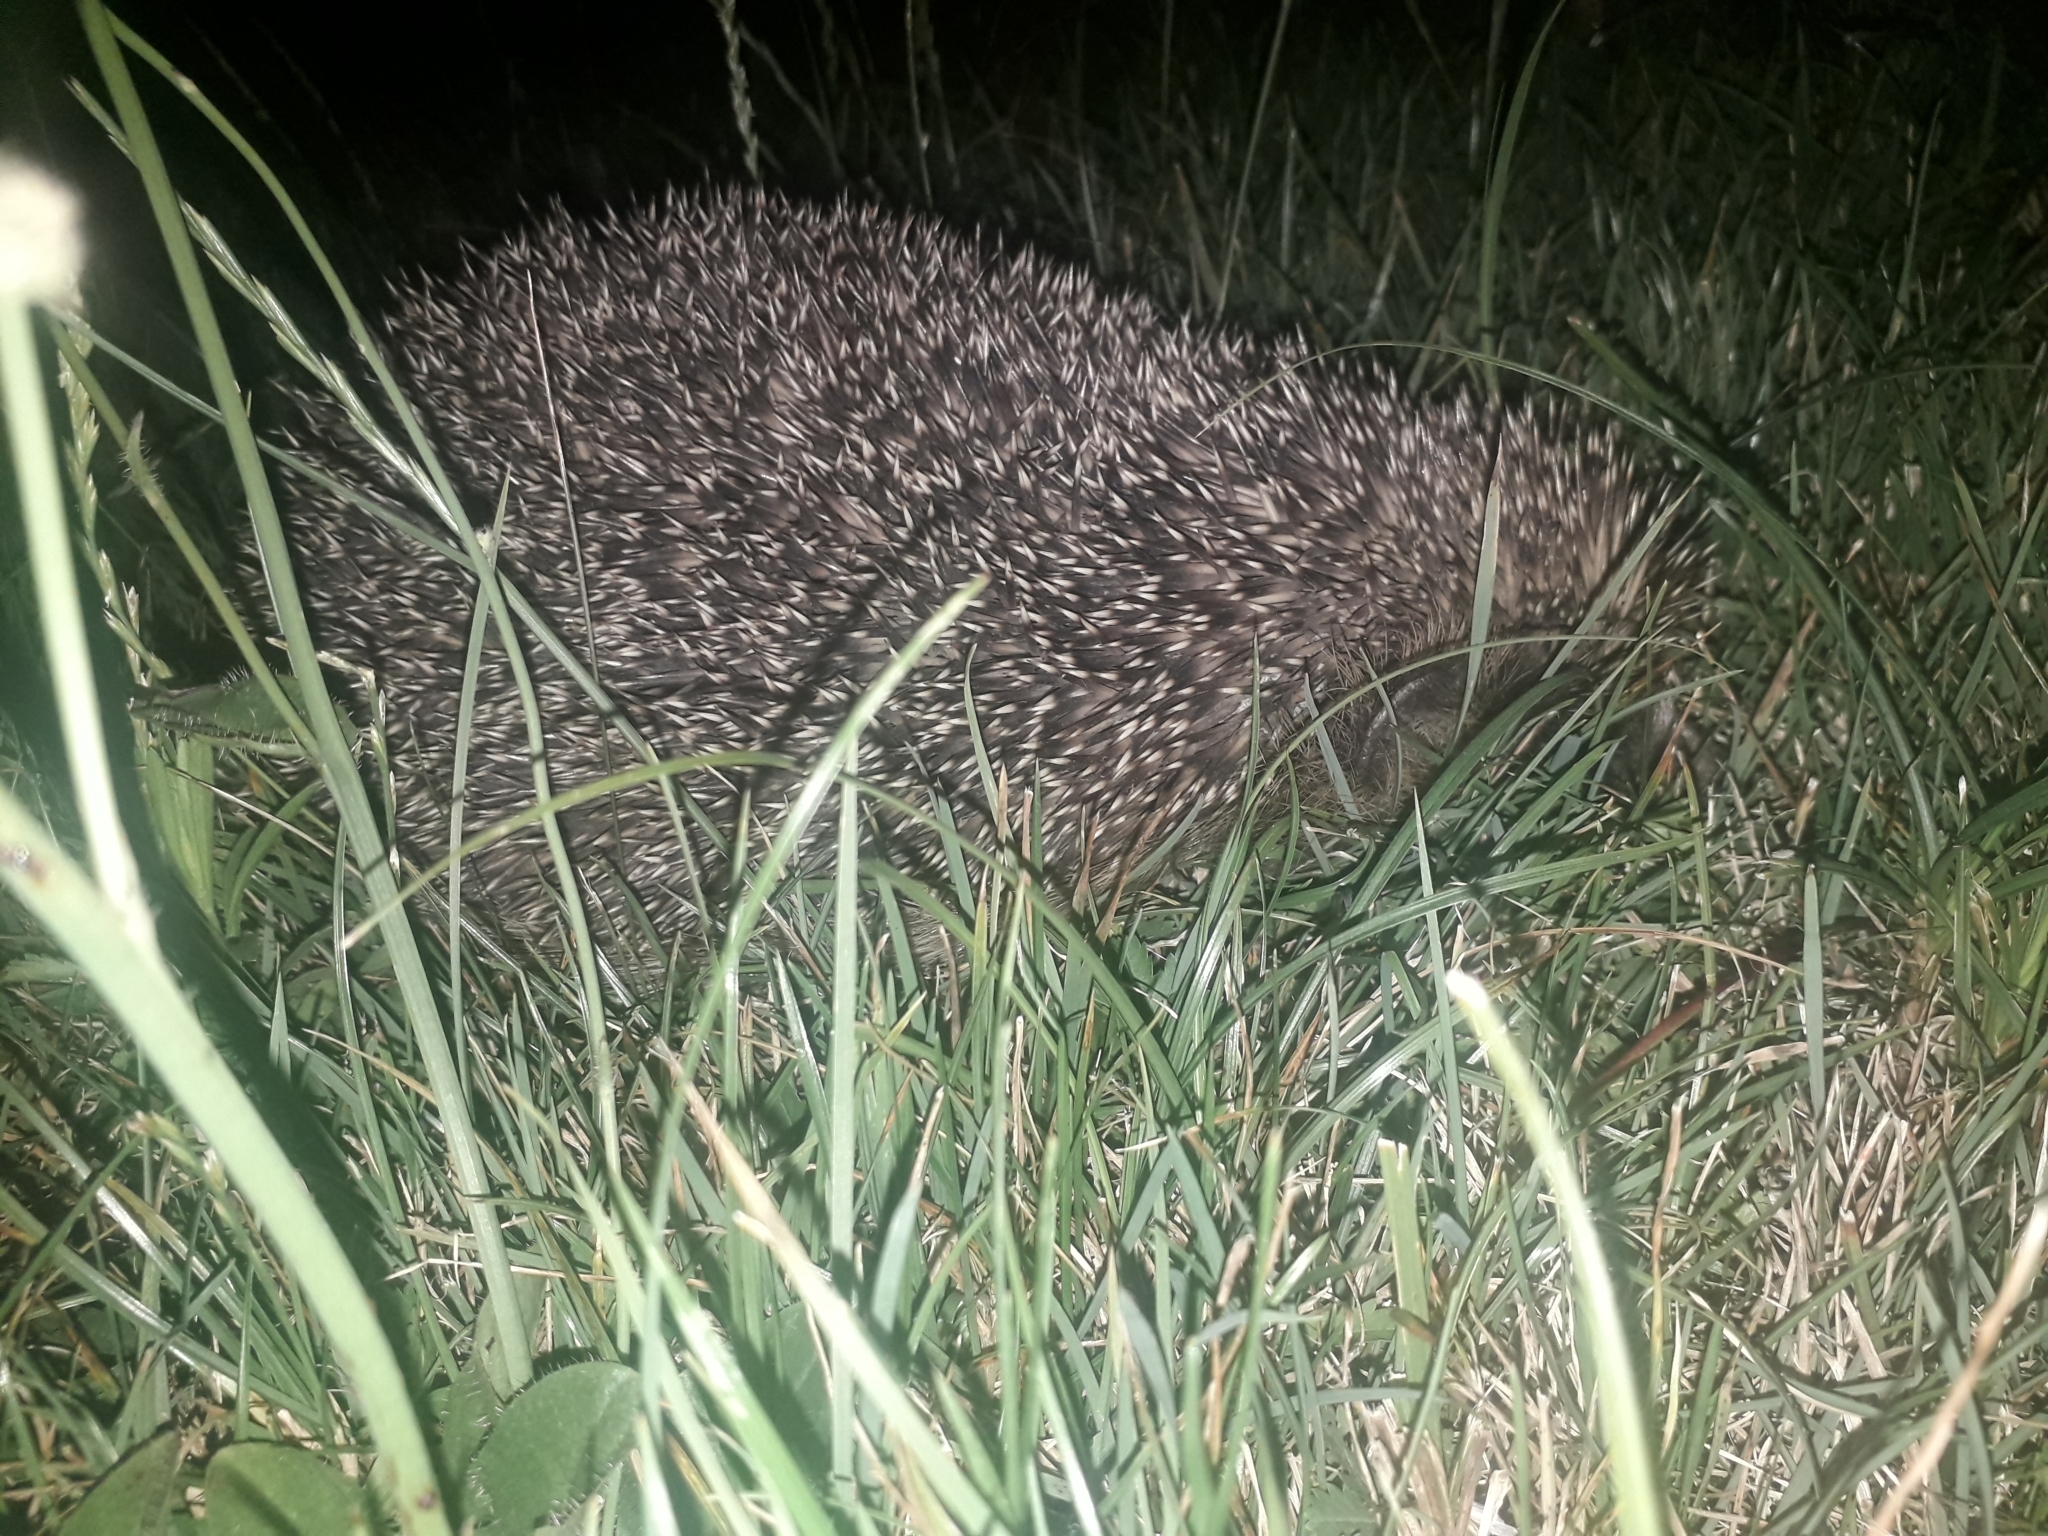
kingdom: Animalia
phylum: Chordata
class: Mammalia
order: Erinaceomorpha
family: Erinaceidae
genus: Erinaceus
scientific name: Erinaceus europaeus
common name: West european hedgehog
